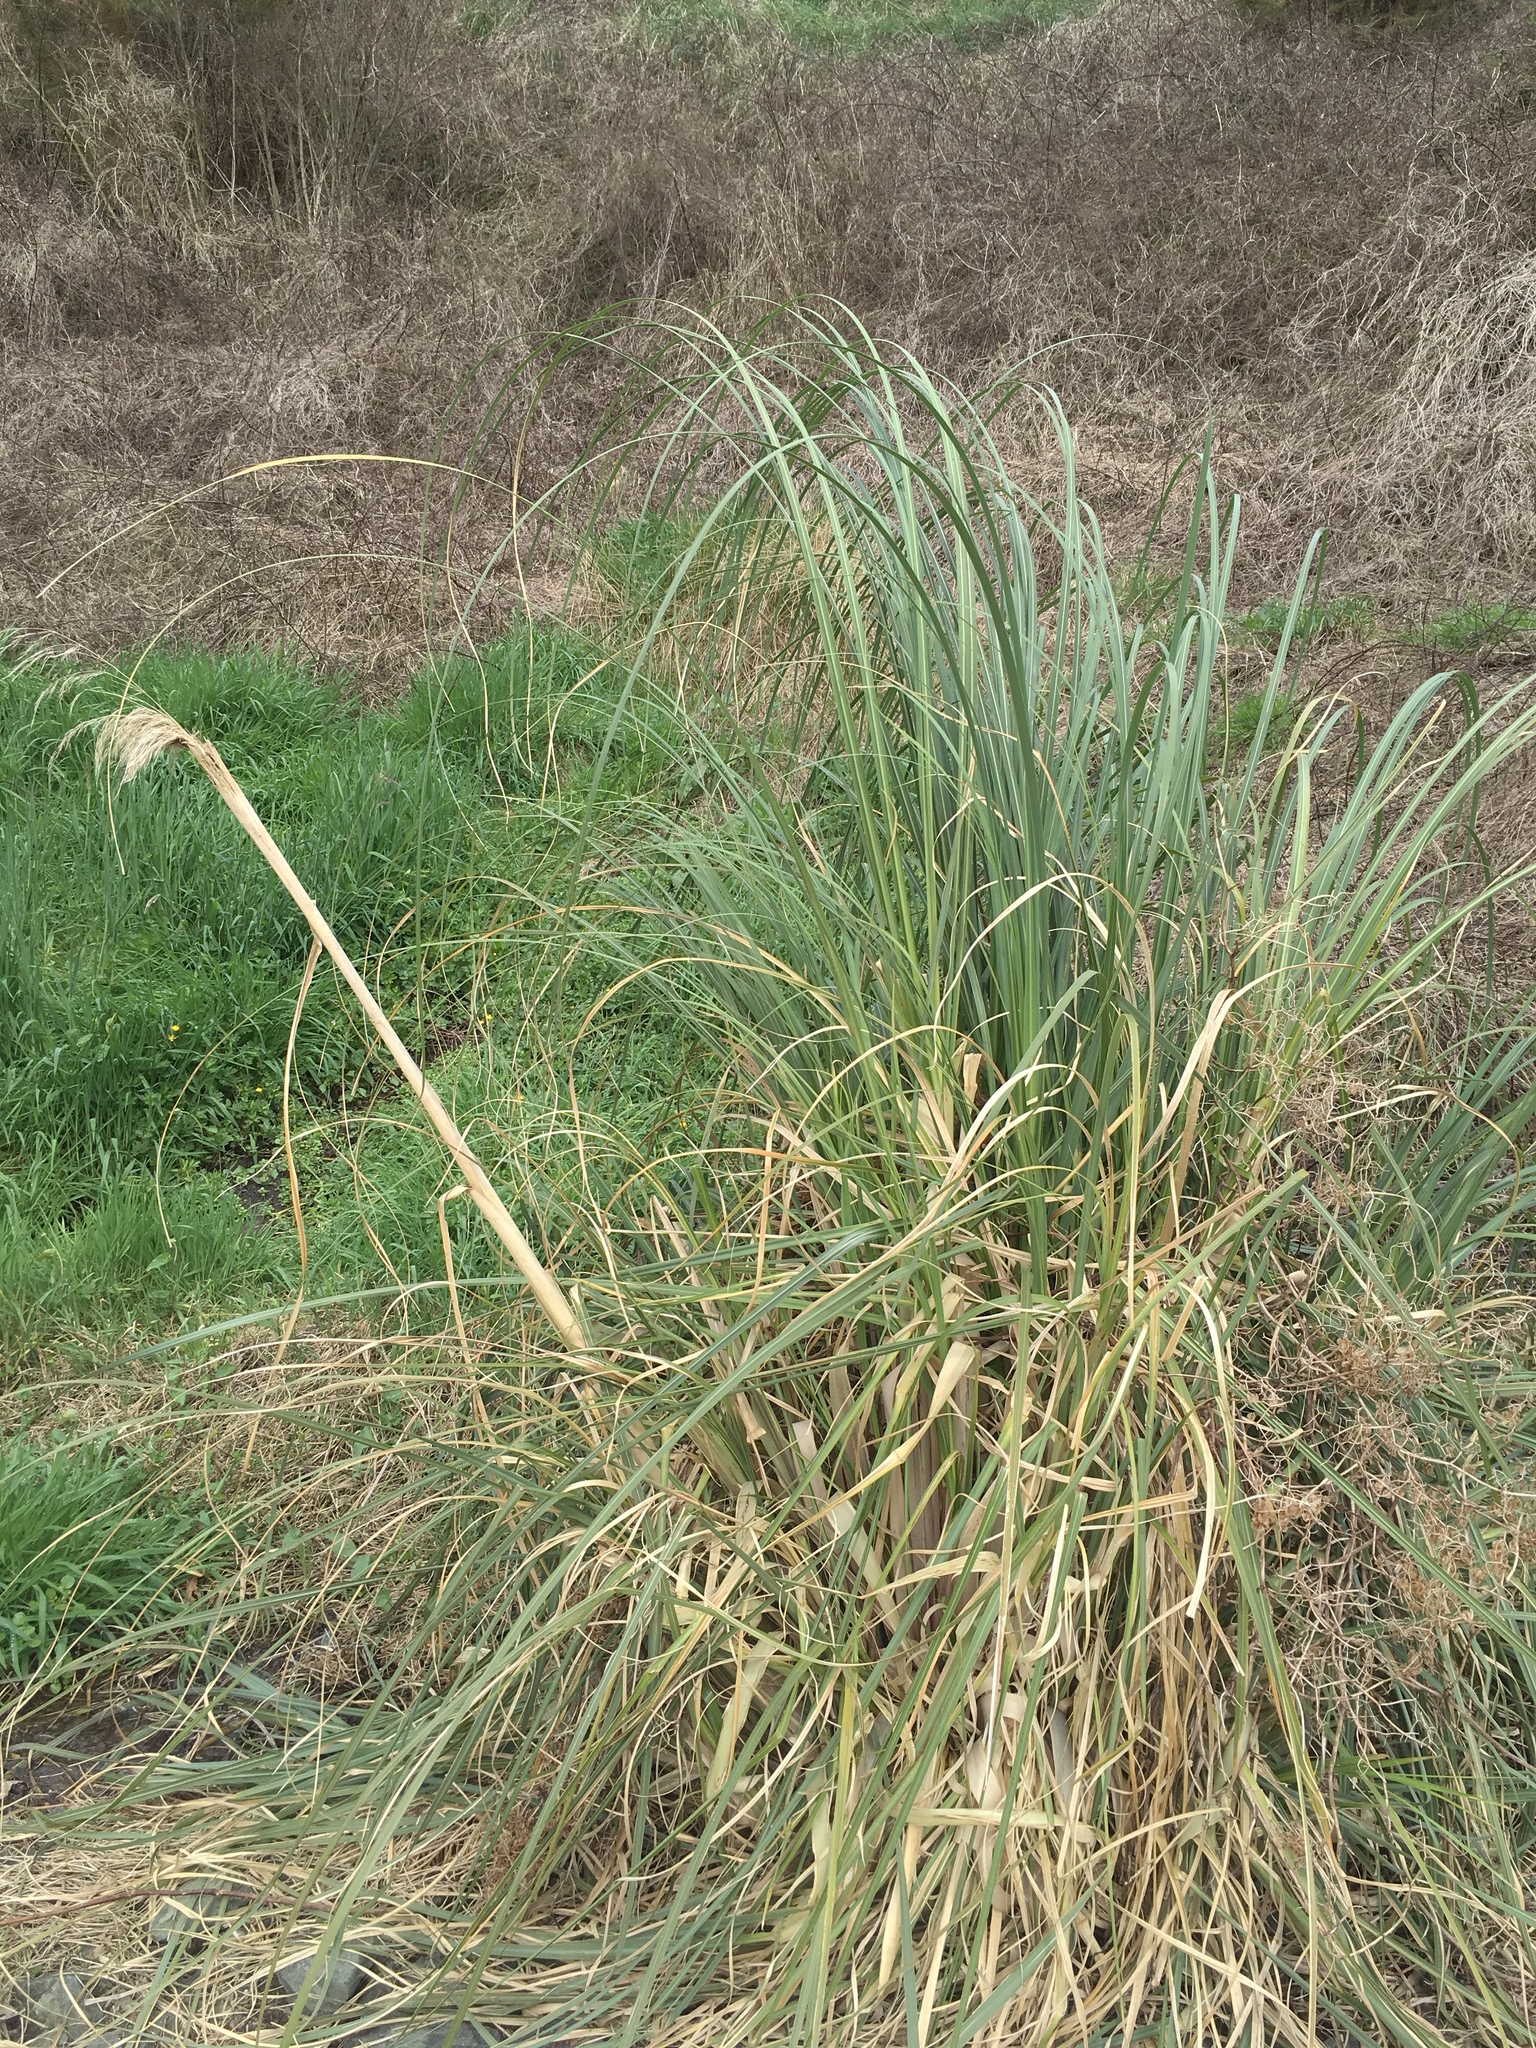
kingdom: Plantae
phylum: Tracheophyta
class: Liliopsida
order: Poales
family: Poaceae
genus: Cortaderia
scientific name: Cortaderia selloana
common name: Uruguayan pampas grass
